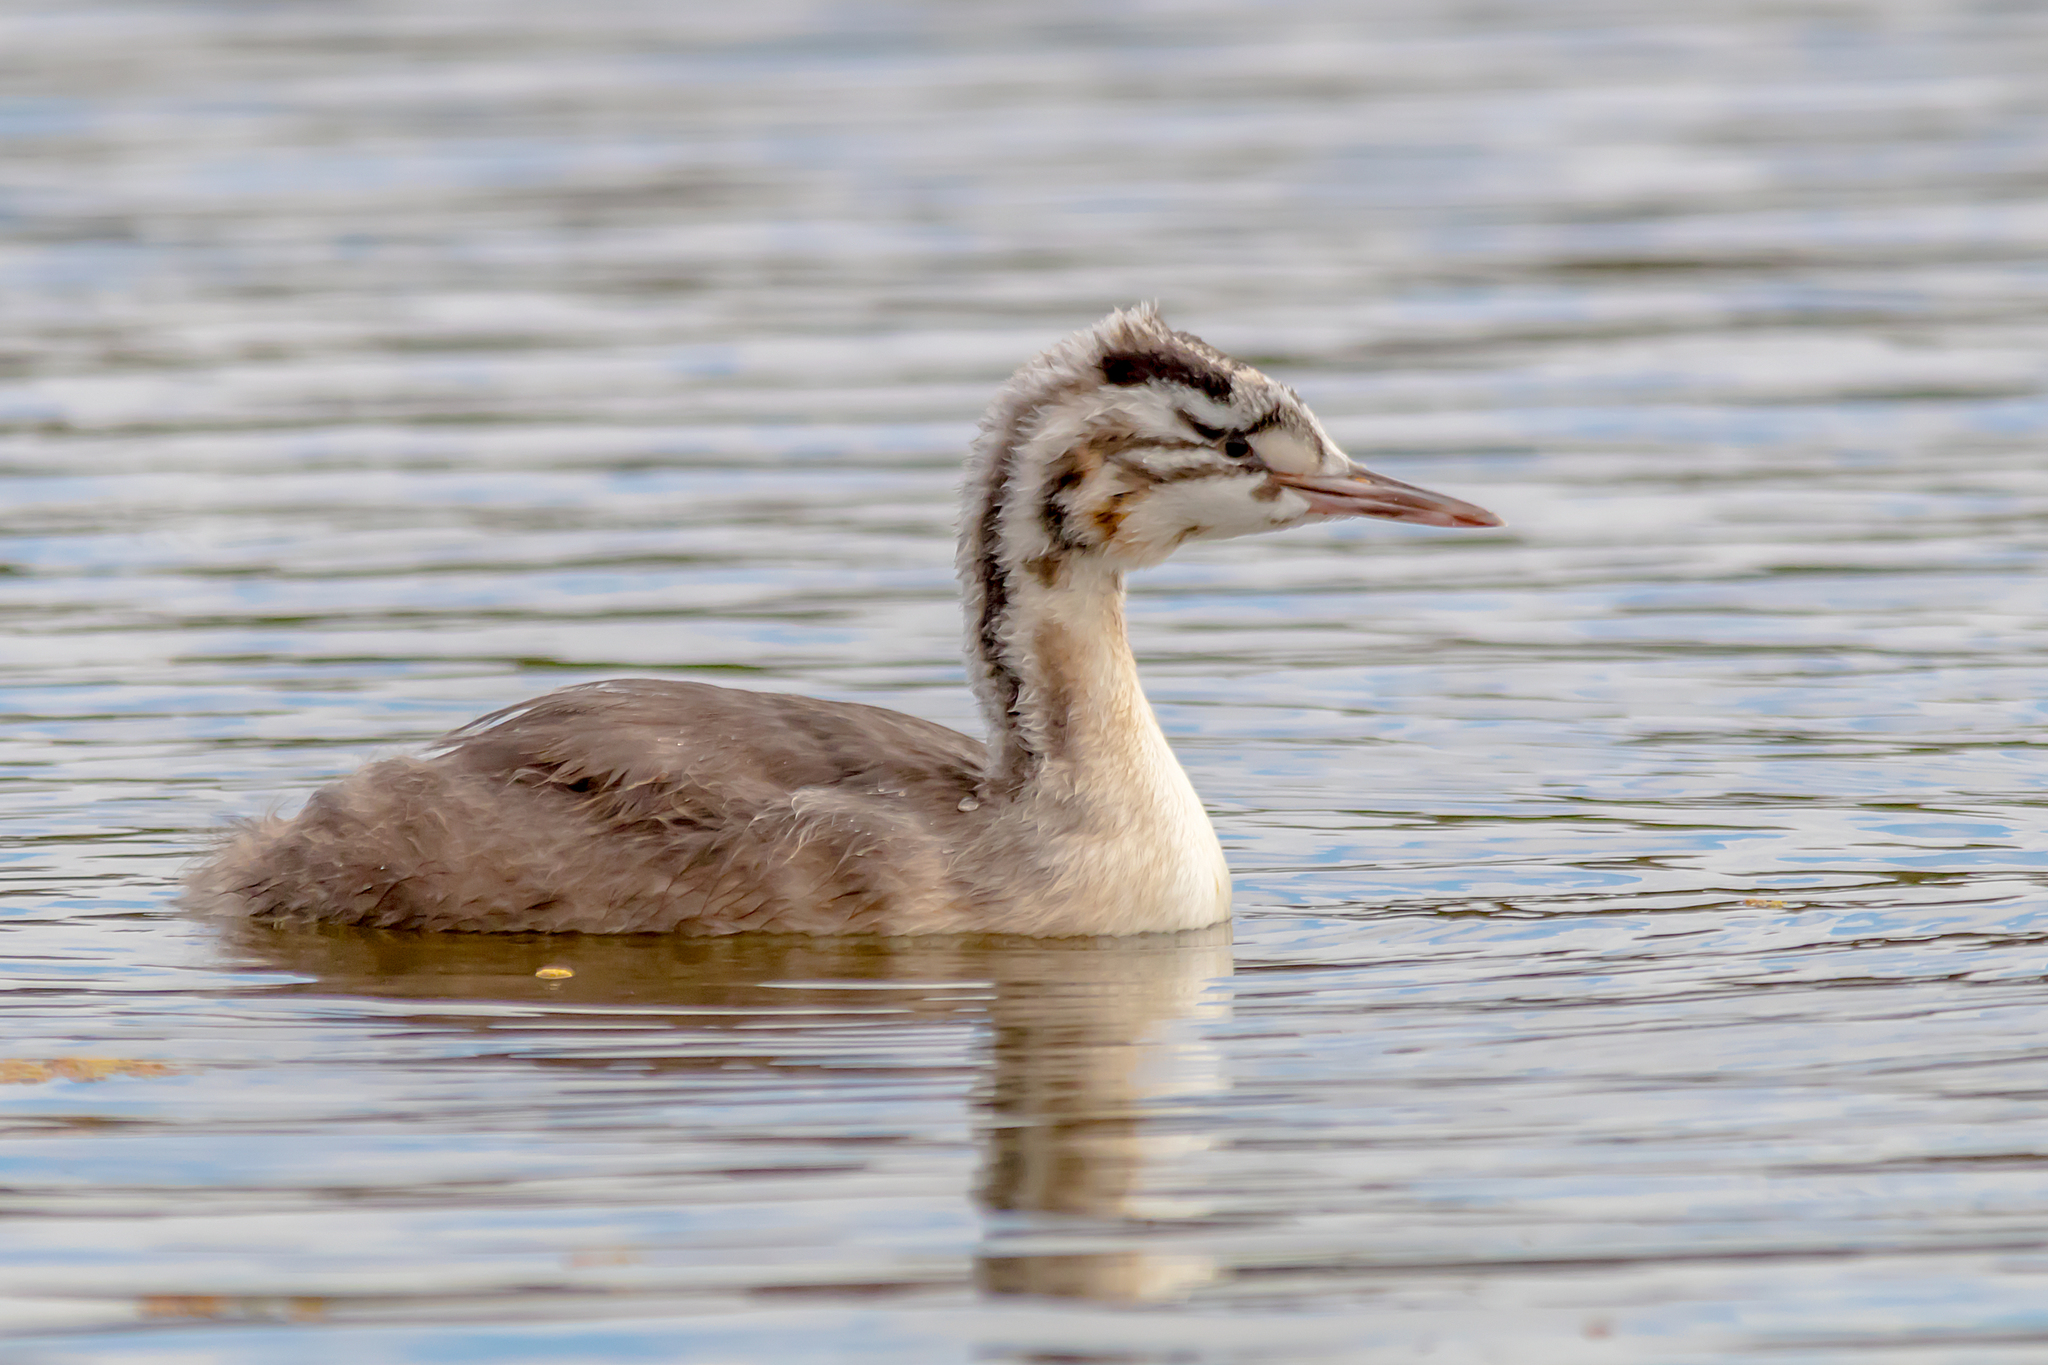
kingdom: Animalia
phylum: Chordata
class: Aves
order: Podicipediformes
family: Podicipedidae
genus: Podiceps
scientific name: Podiceps cristatus
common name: Great crested grebe
